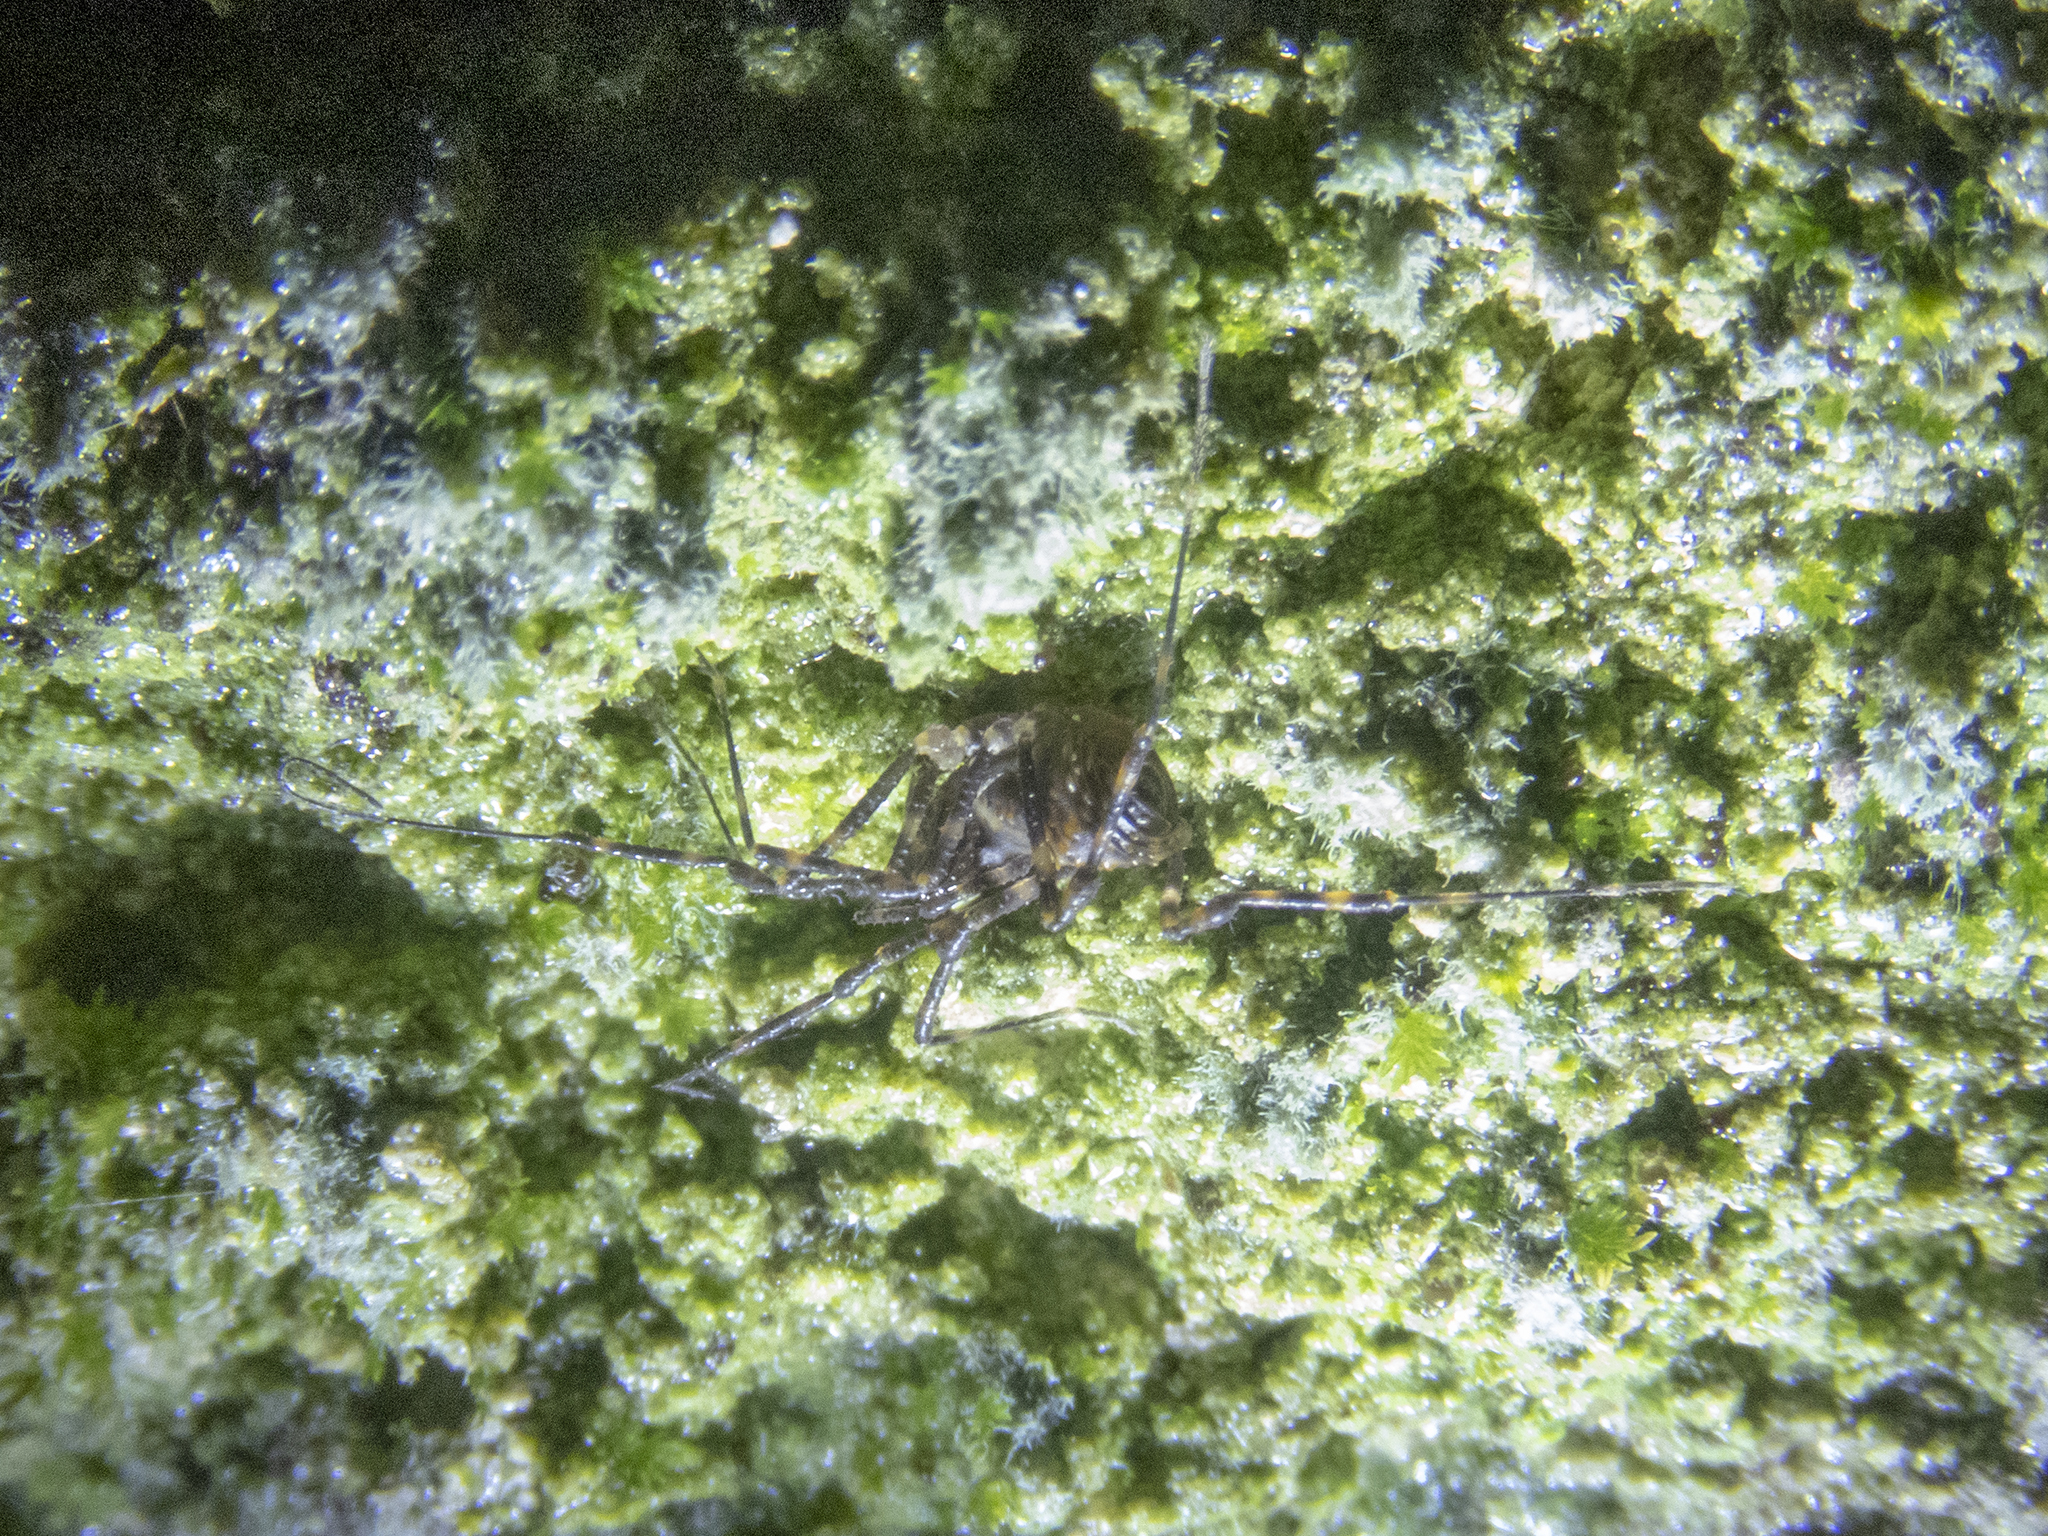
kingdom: Animalia
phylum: Arthropoda
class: Arachnida
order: Opiliones
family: Triaenonychidae
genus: Hendea
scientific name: Hendea myersi
